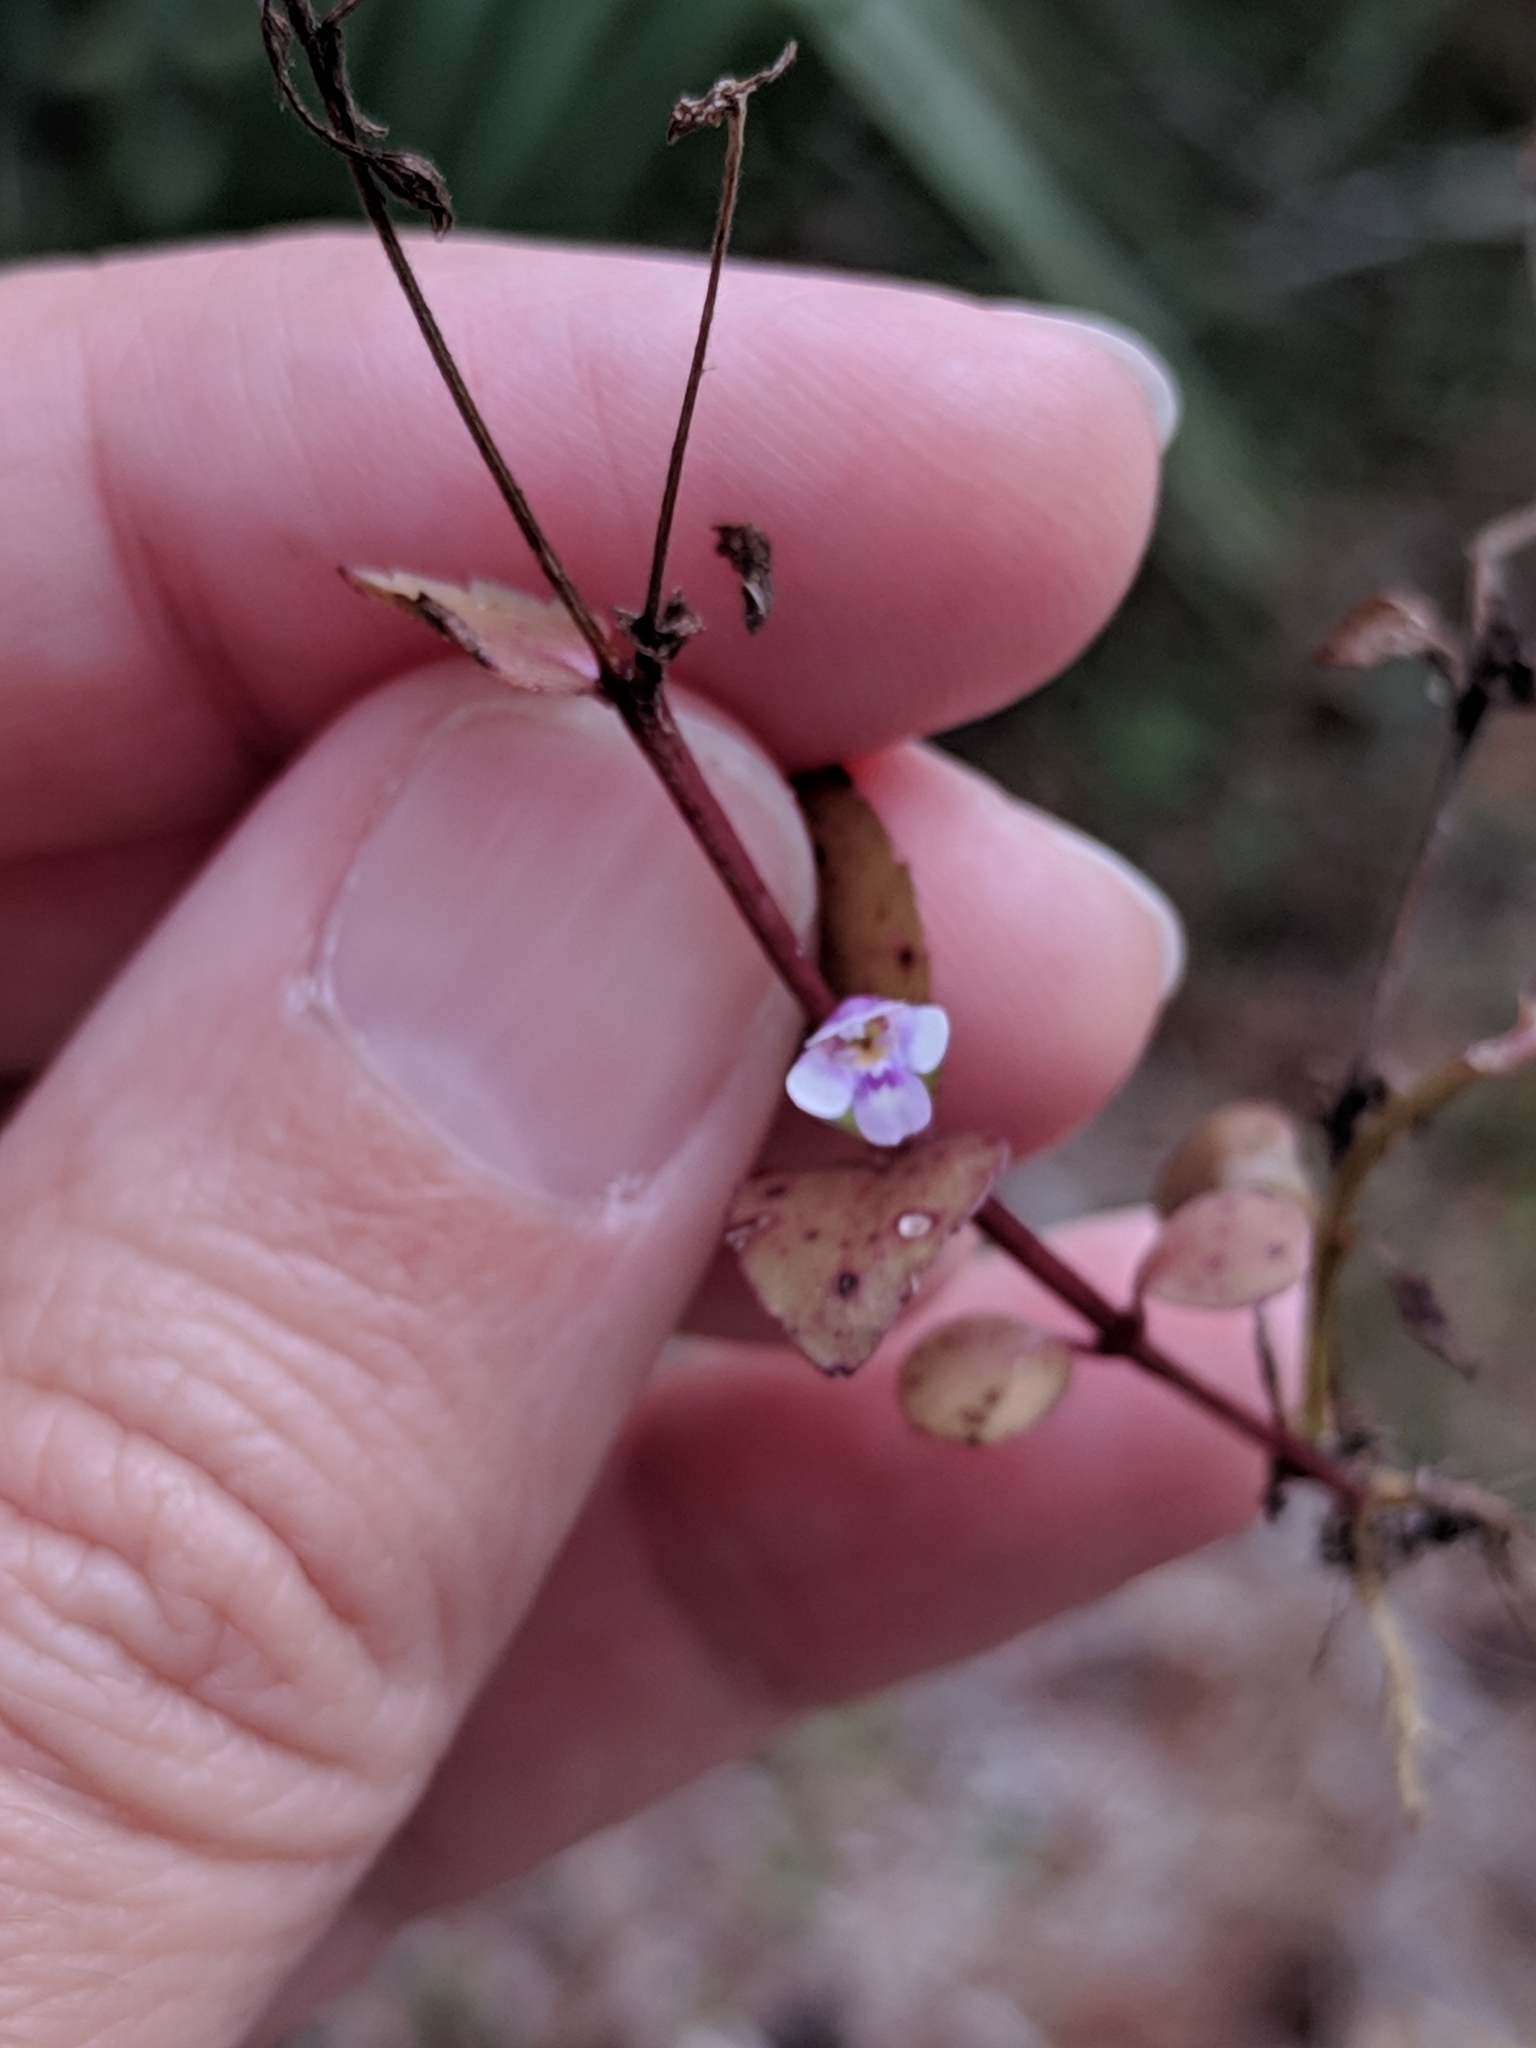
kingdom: Plantae
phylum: Tracheophyta
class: Magnoliopsida
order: Lamiales
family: Linderniaceae
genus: Torenia
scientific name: Torenia crustacea
